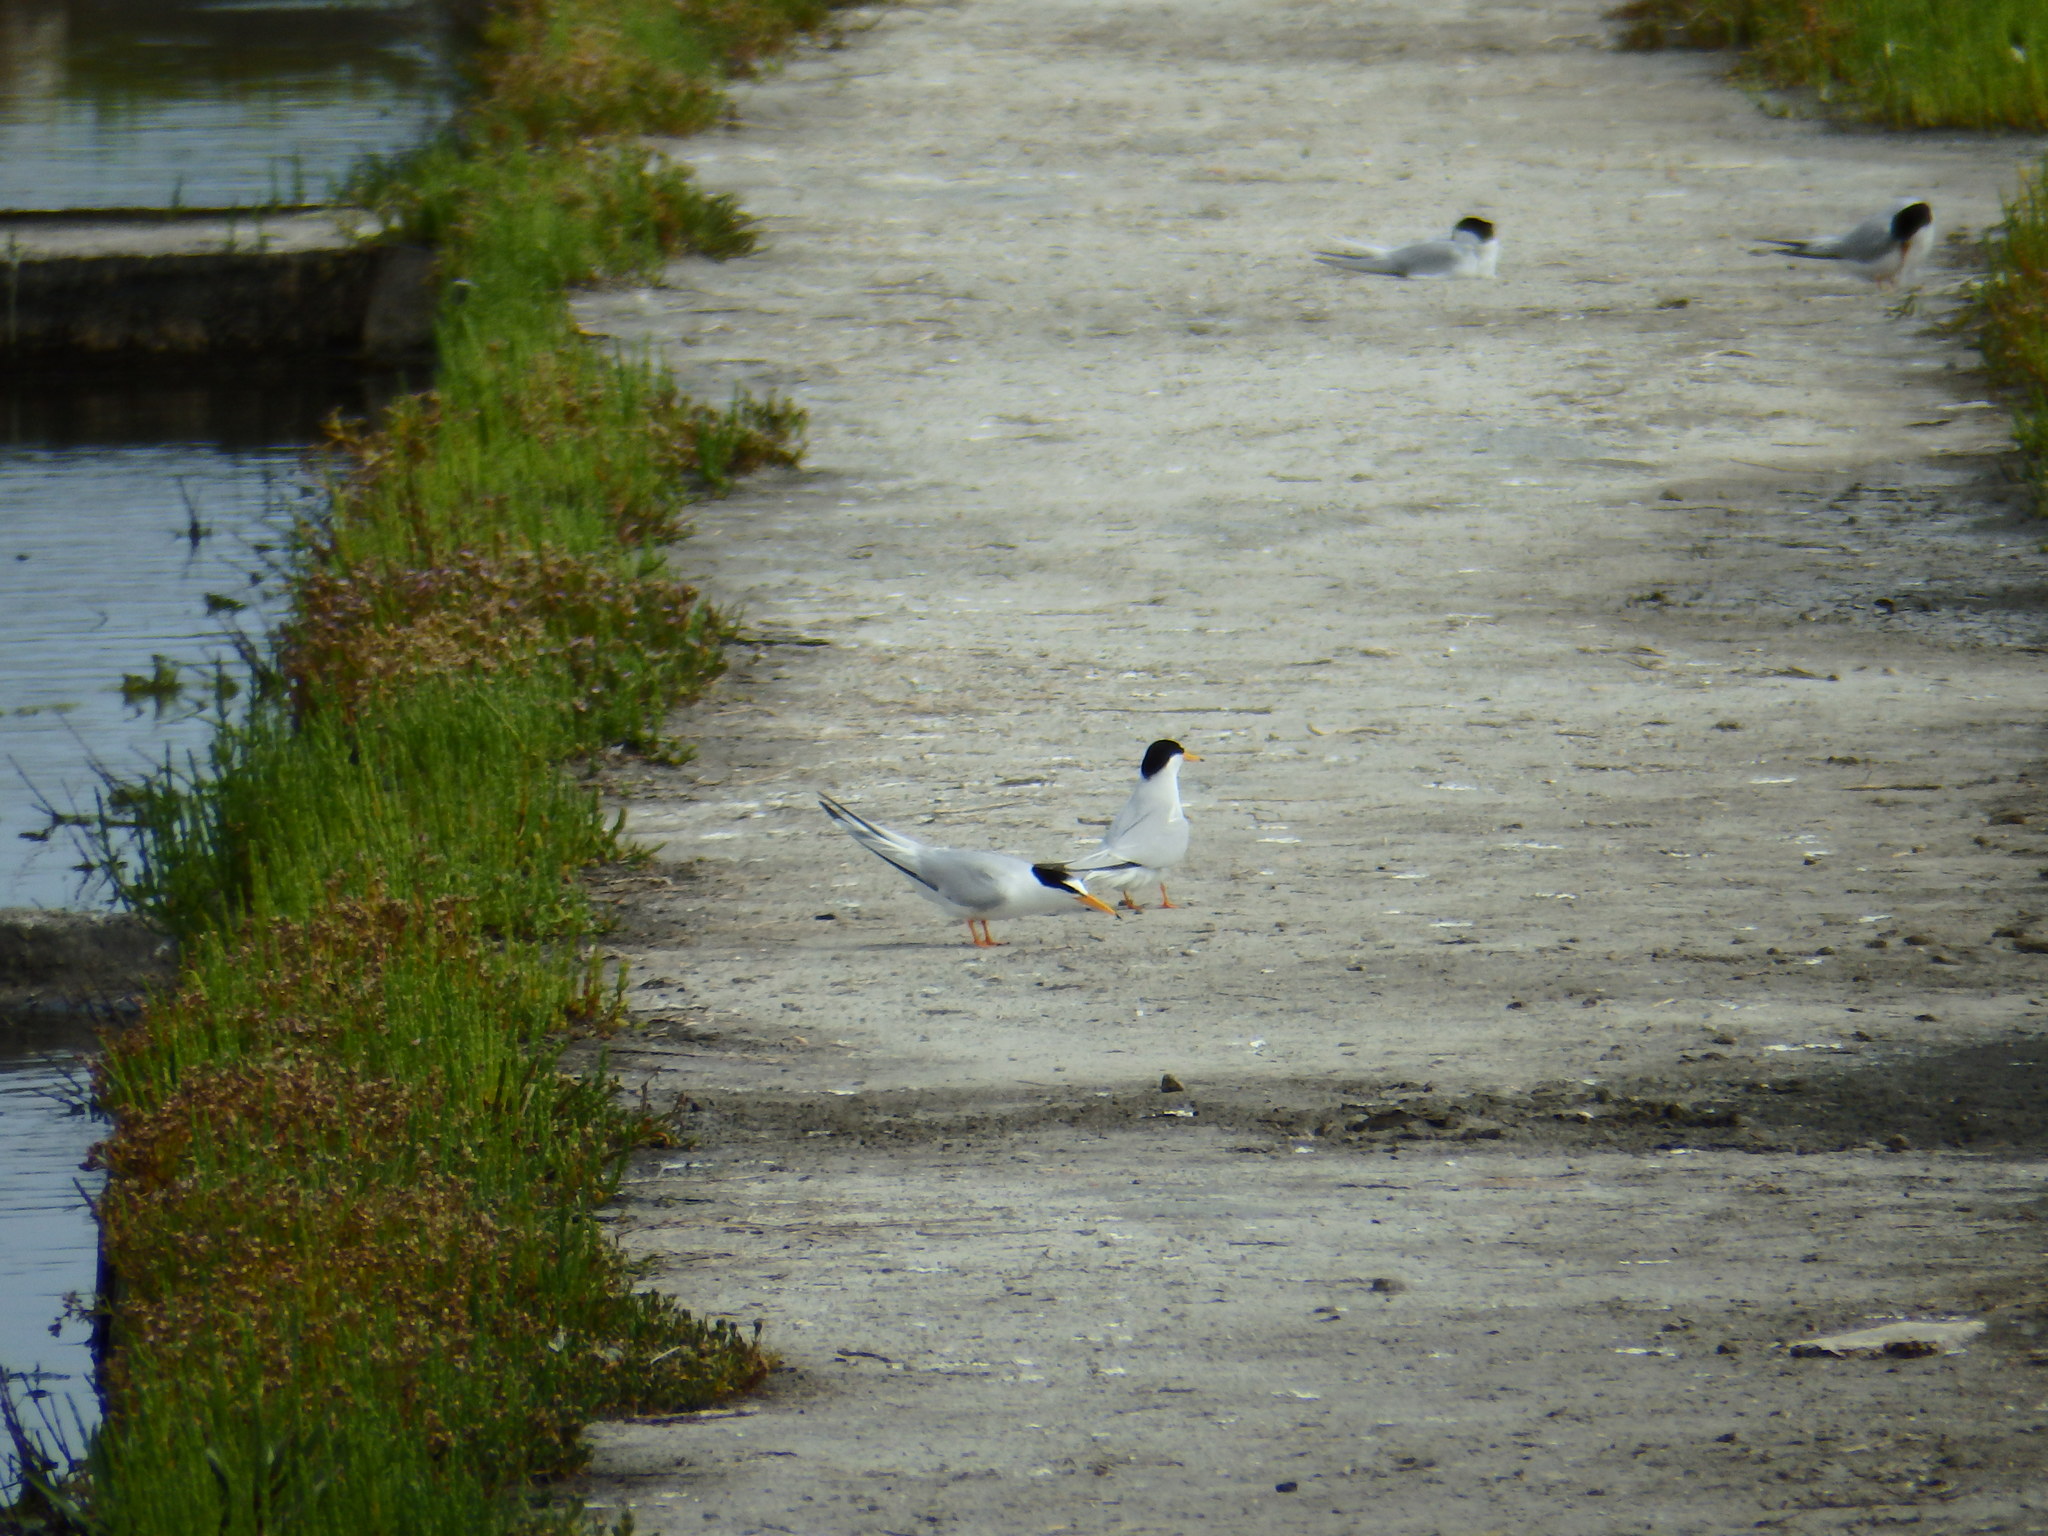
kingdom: Animalia
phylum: Chordata
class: Aves
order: Charadriiformes
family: Laridae
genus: Sternula
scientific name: Sternula albifrons
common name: Little tern
